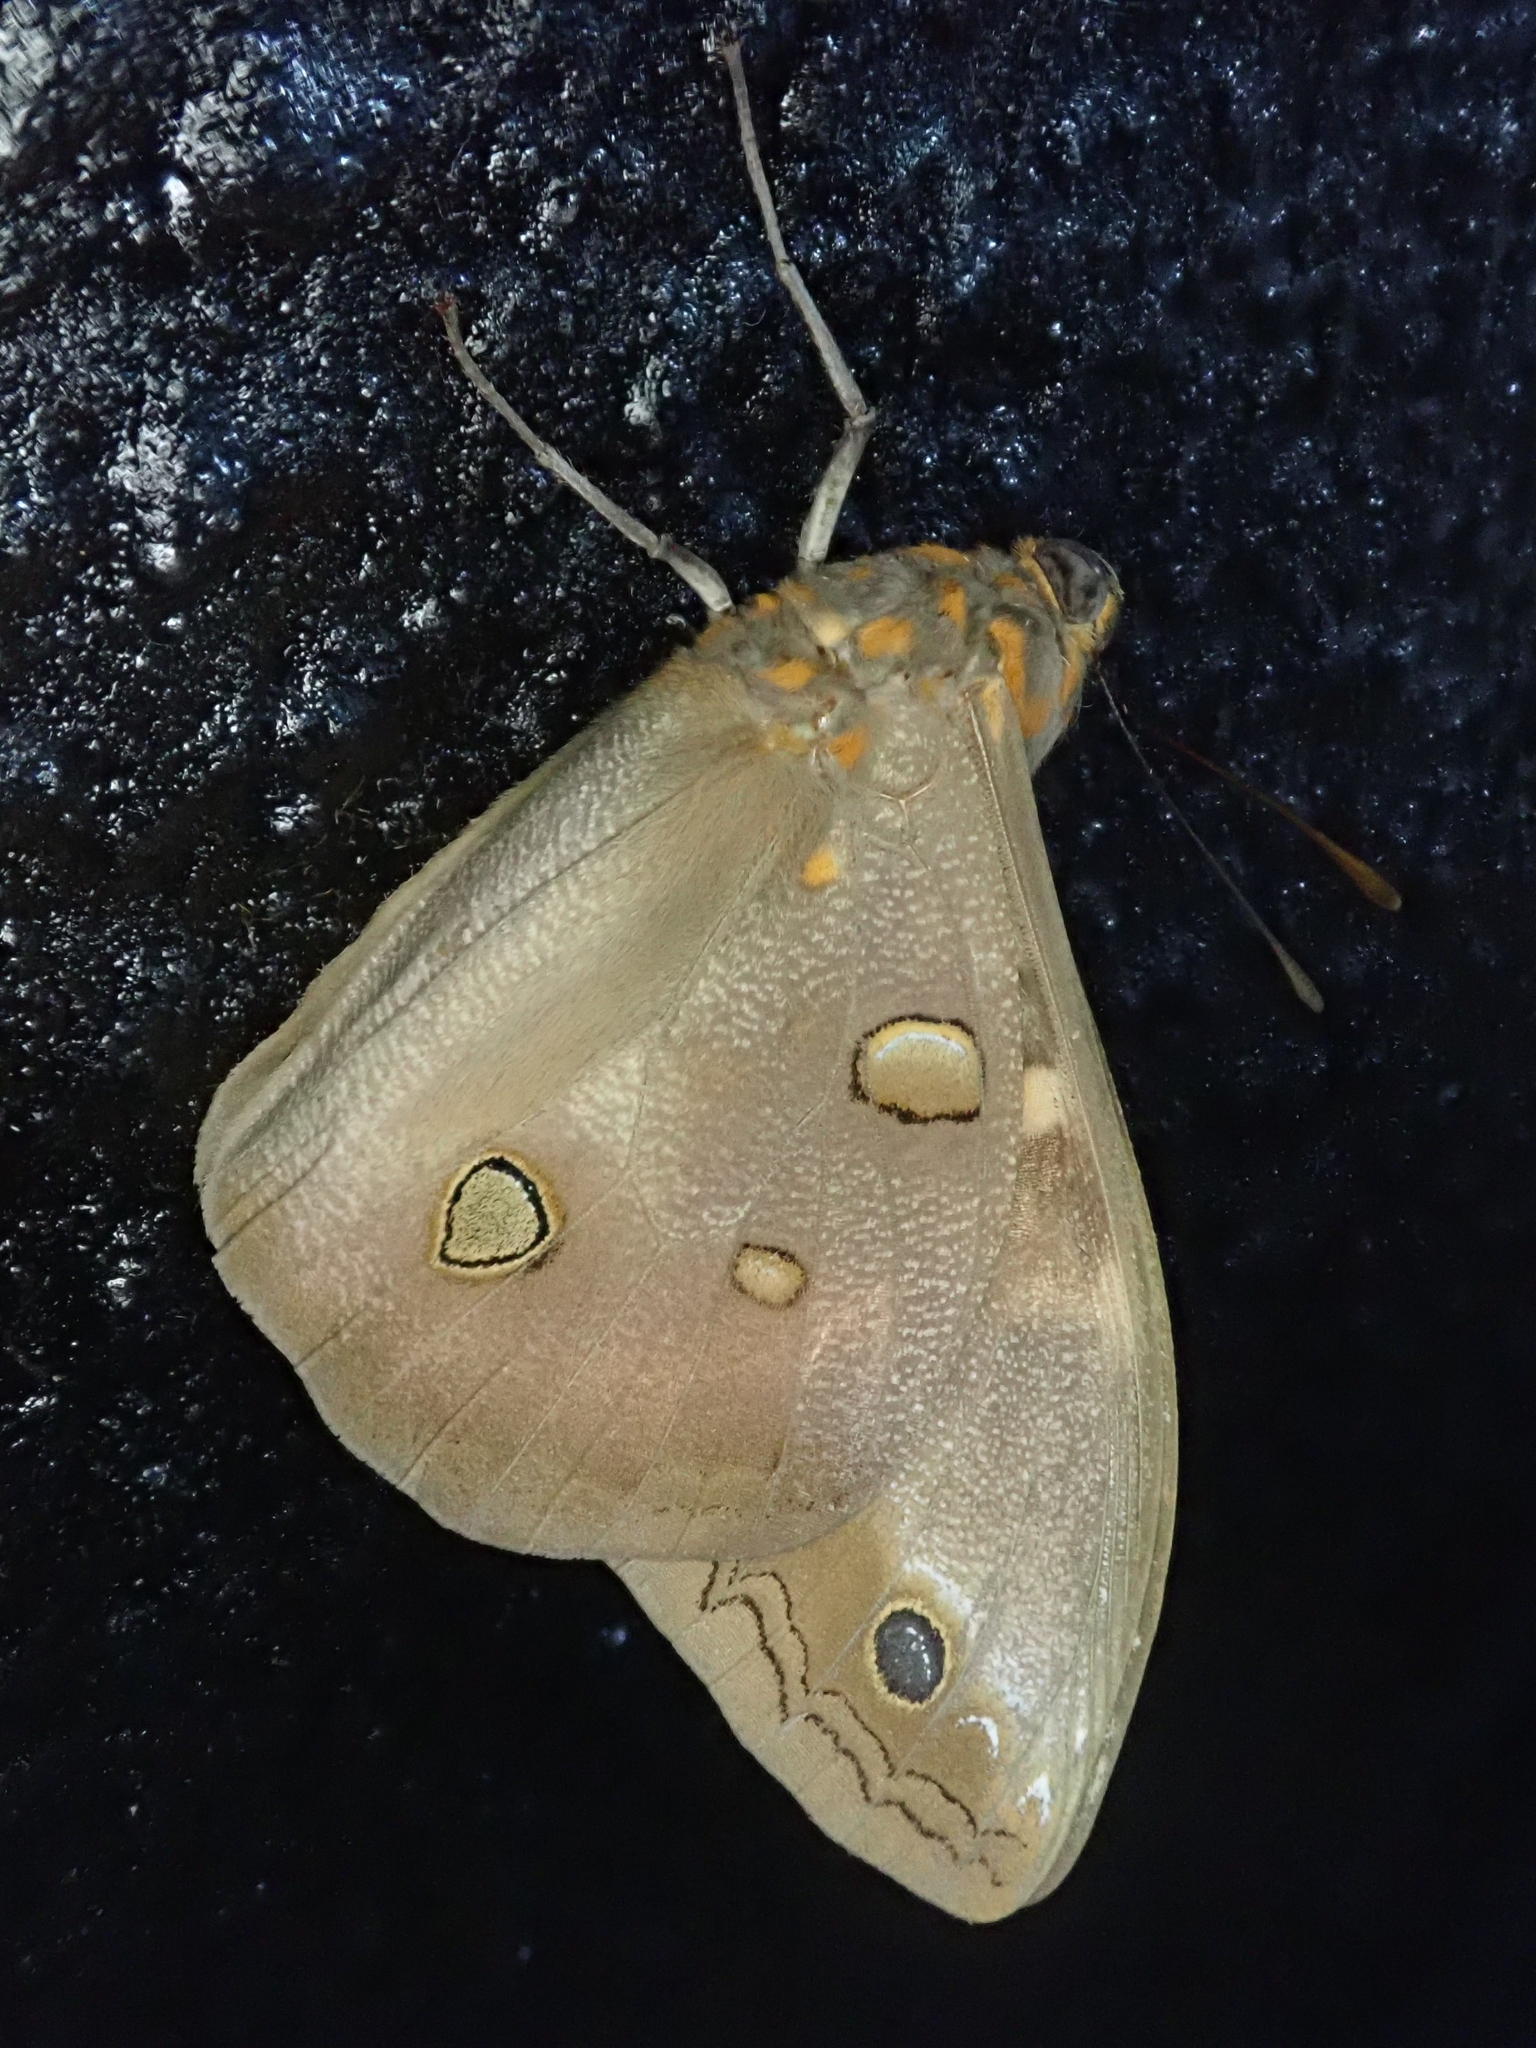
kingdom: Animalia
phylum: Arthropoda
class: Insecta
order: Lepidoptera
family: Nymphalidae
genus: Brassolis
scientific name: Brassolis sophorae
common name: Coconut caterpillar
